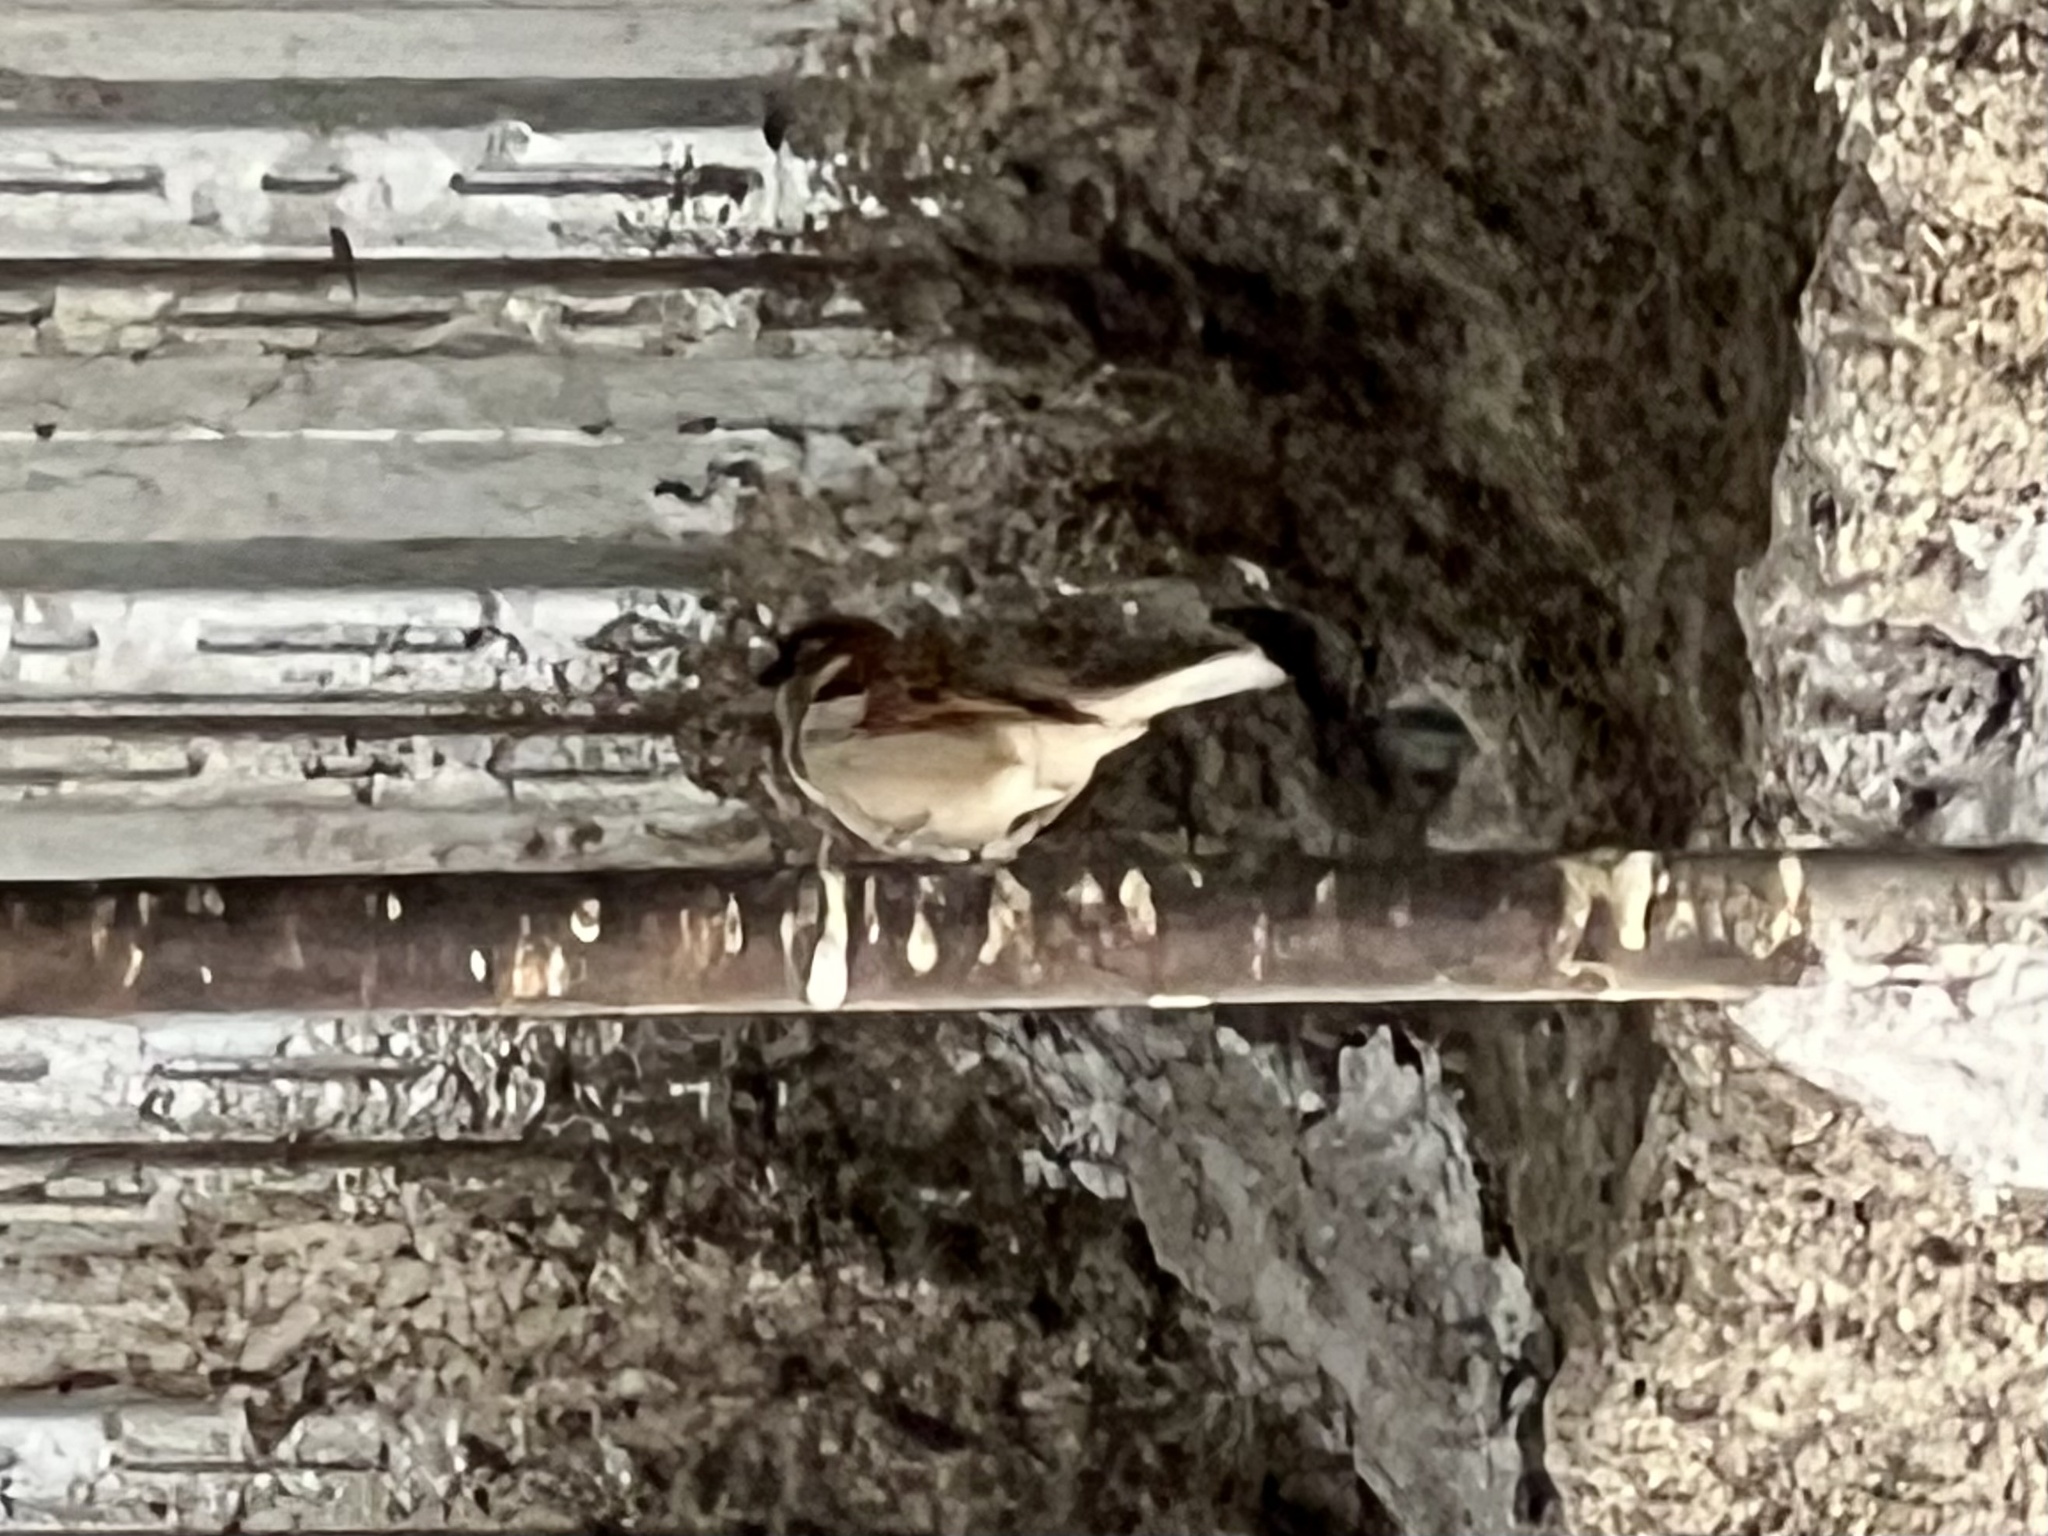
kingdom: Animalia
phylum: Chordata
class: Aves
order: Passeriformes
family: Passeridae
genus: Passer
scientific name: Passer domesticus
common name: House sparrow
